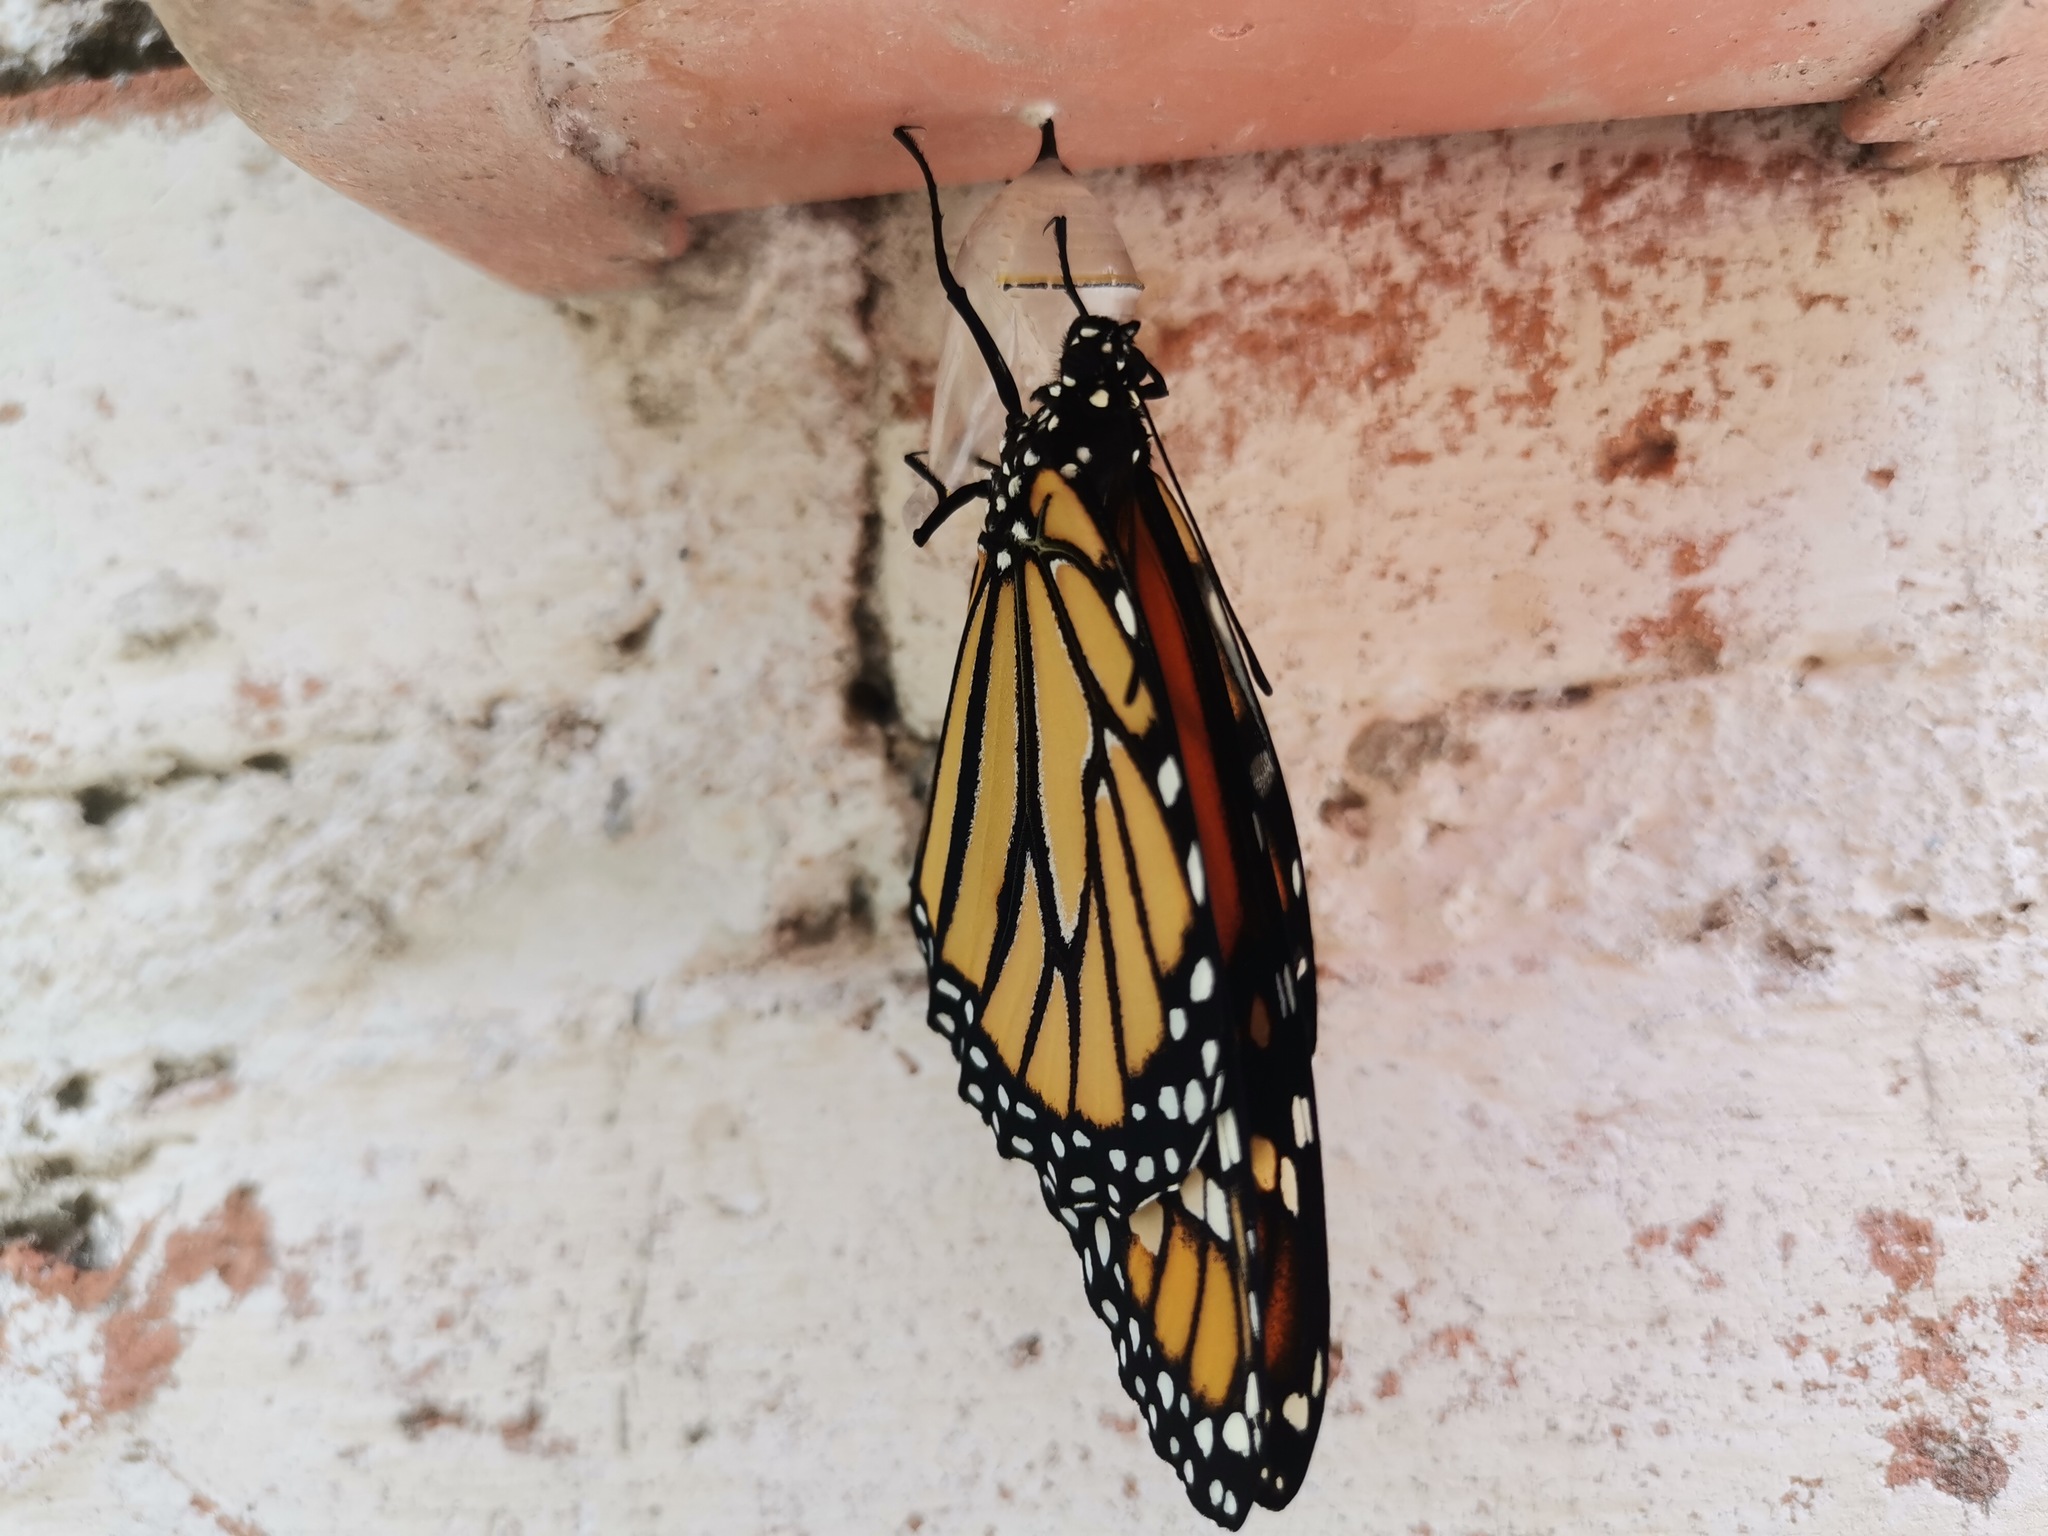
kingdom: Animalia
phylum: Arthropoda
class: Insecta
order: Lepidoptera
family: Nymphalidae
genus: Danaus
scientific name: Danaus plexippus
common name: Monarch
